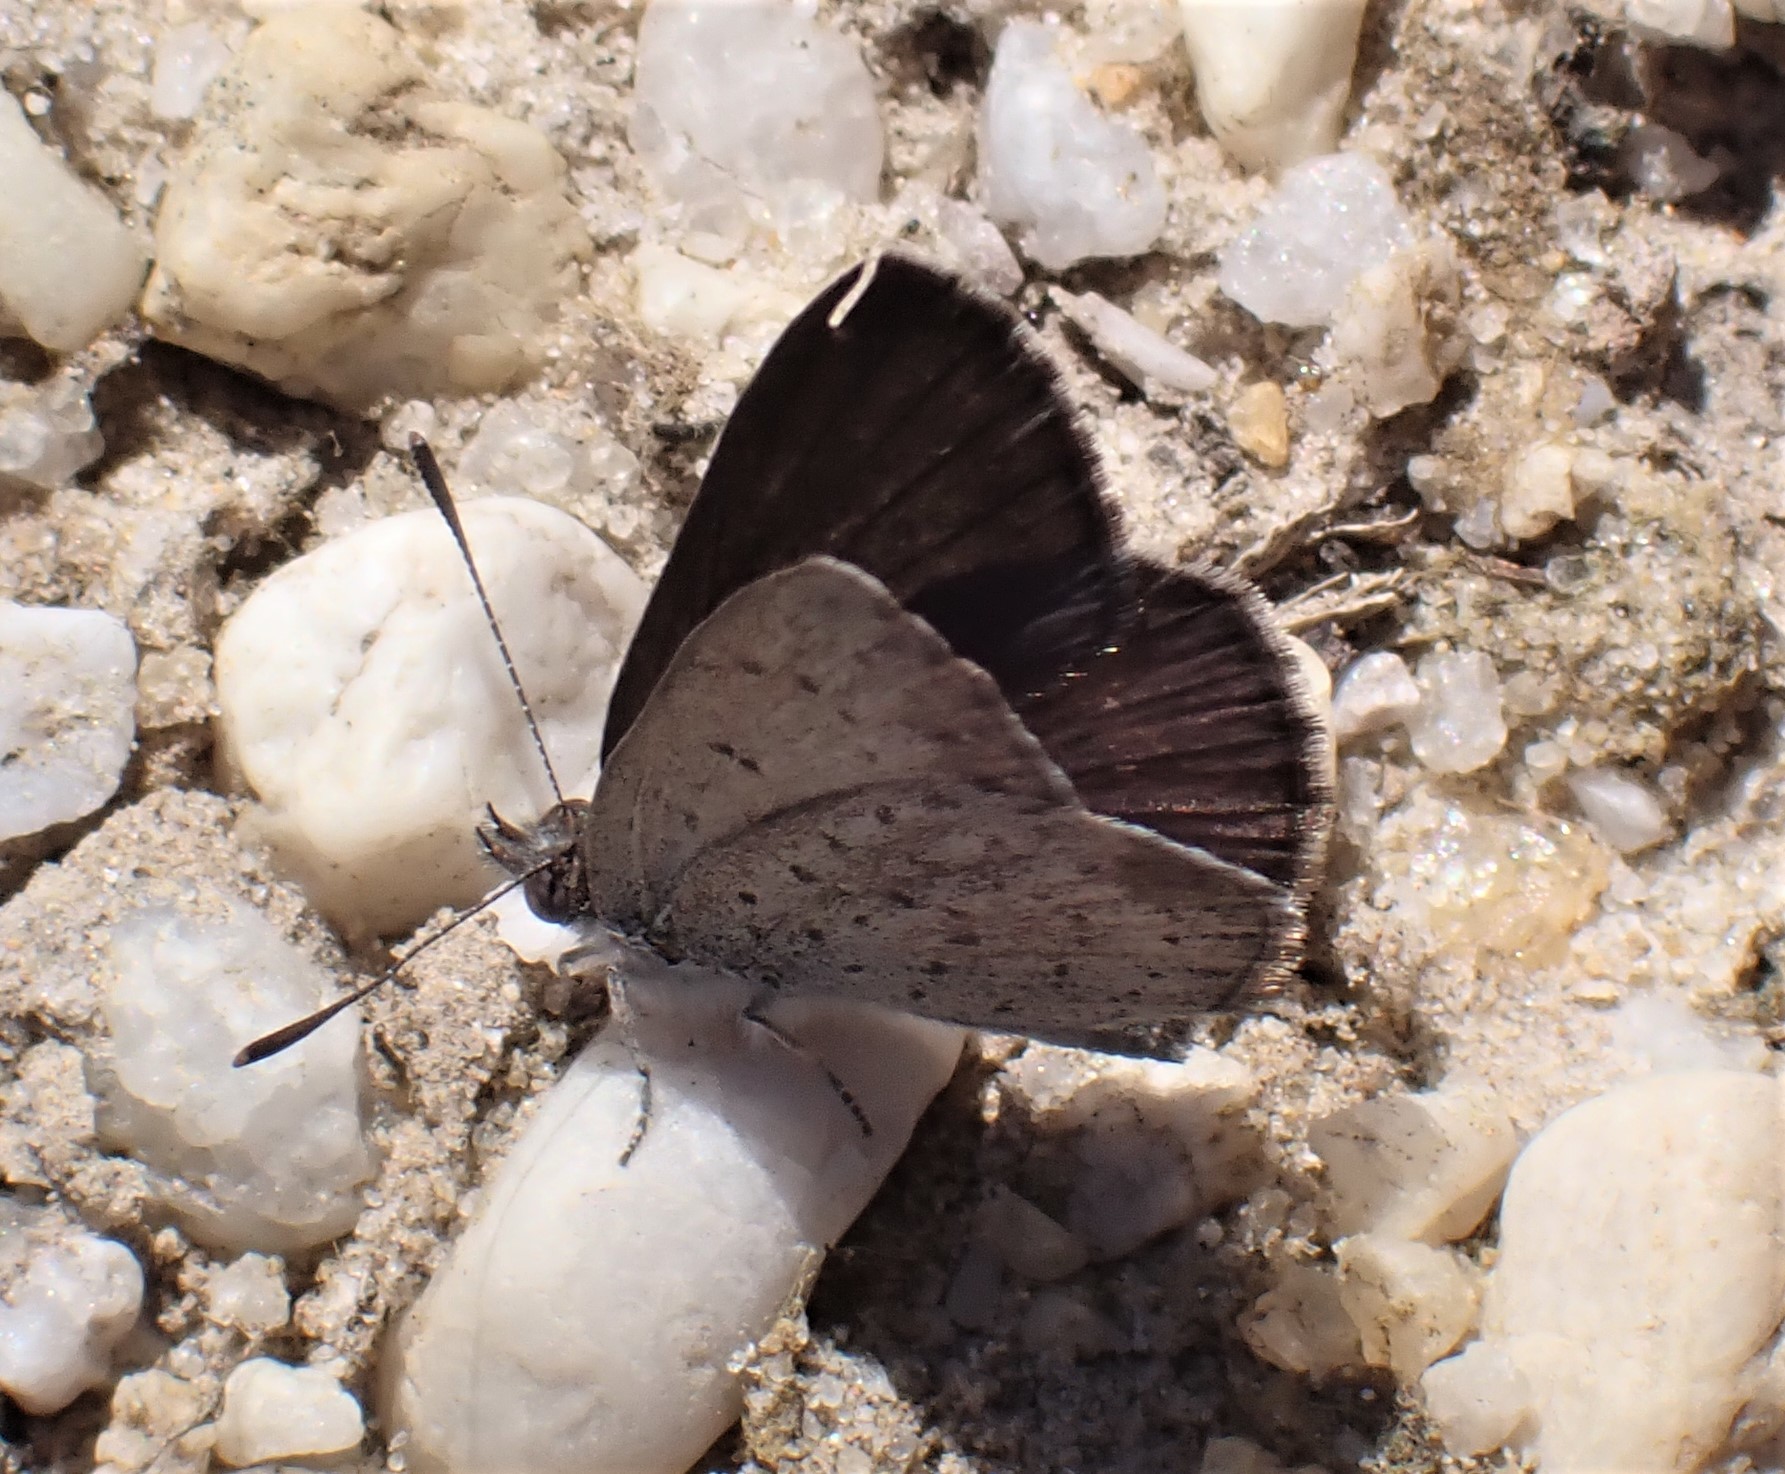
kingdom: Animalia
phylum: Arthropoda
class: Insecta
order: Lepidoptera
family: Lycaenidae
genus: Candalides
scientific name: Candalides
